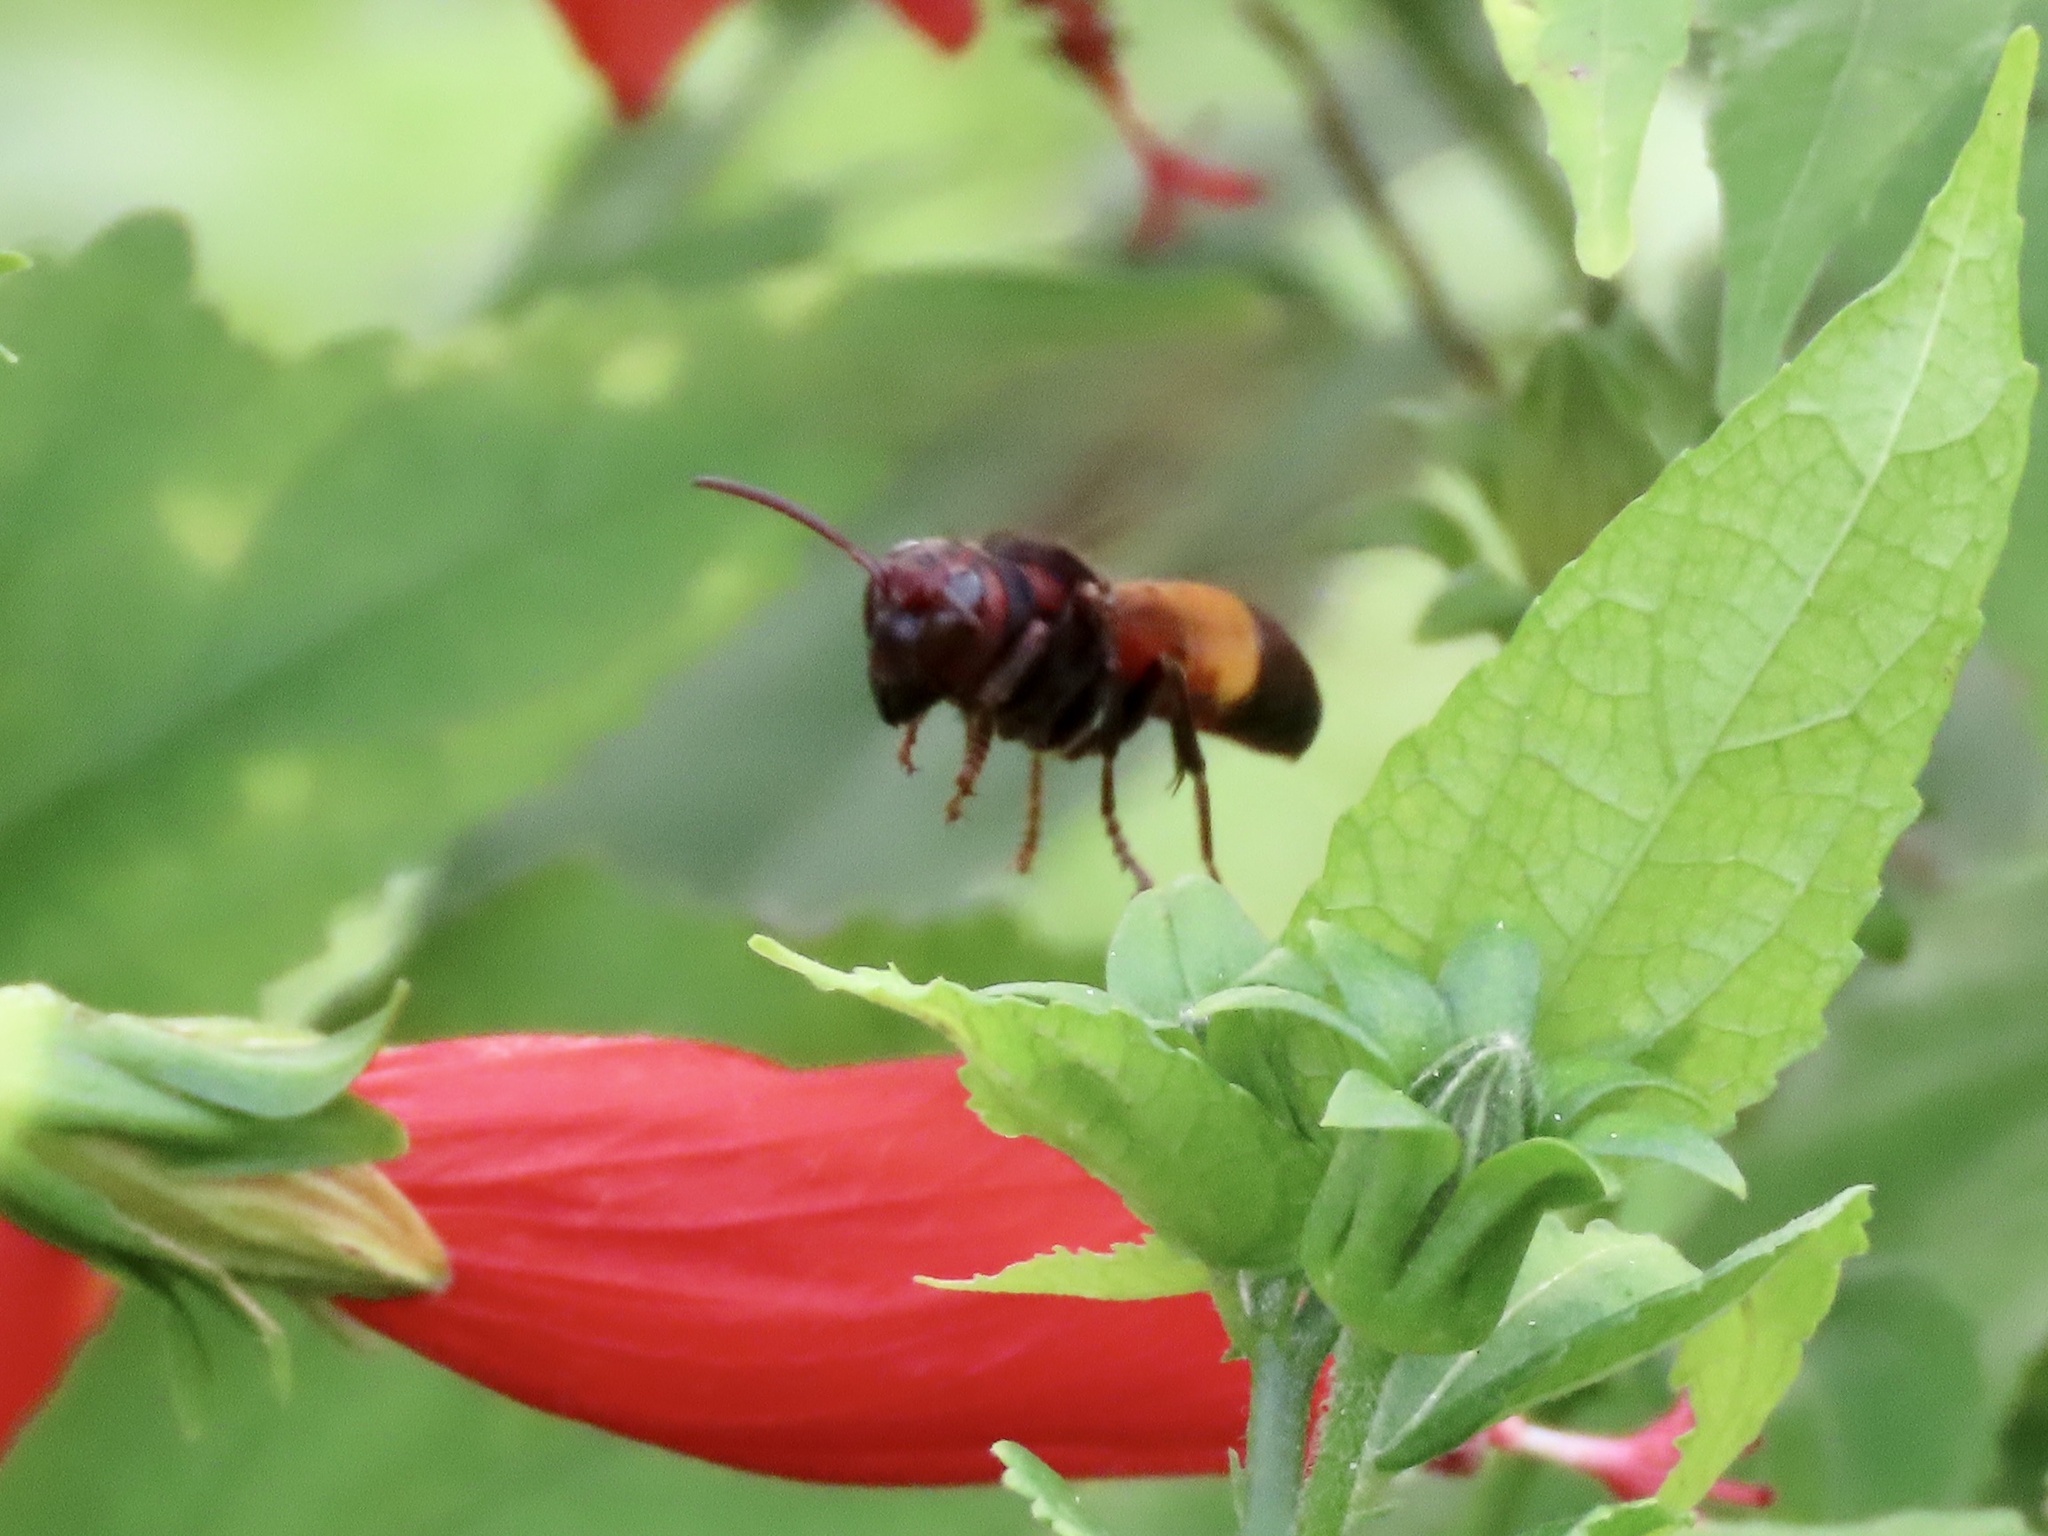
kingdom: Animalia
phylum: Arthropoda
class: Insecta
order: Hymenoptera
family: Vespidae
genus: Vespa
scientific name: Vespa affinis
